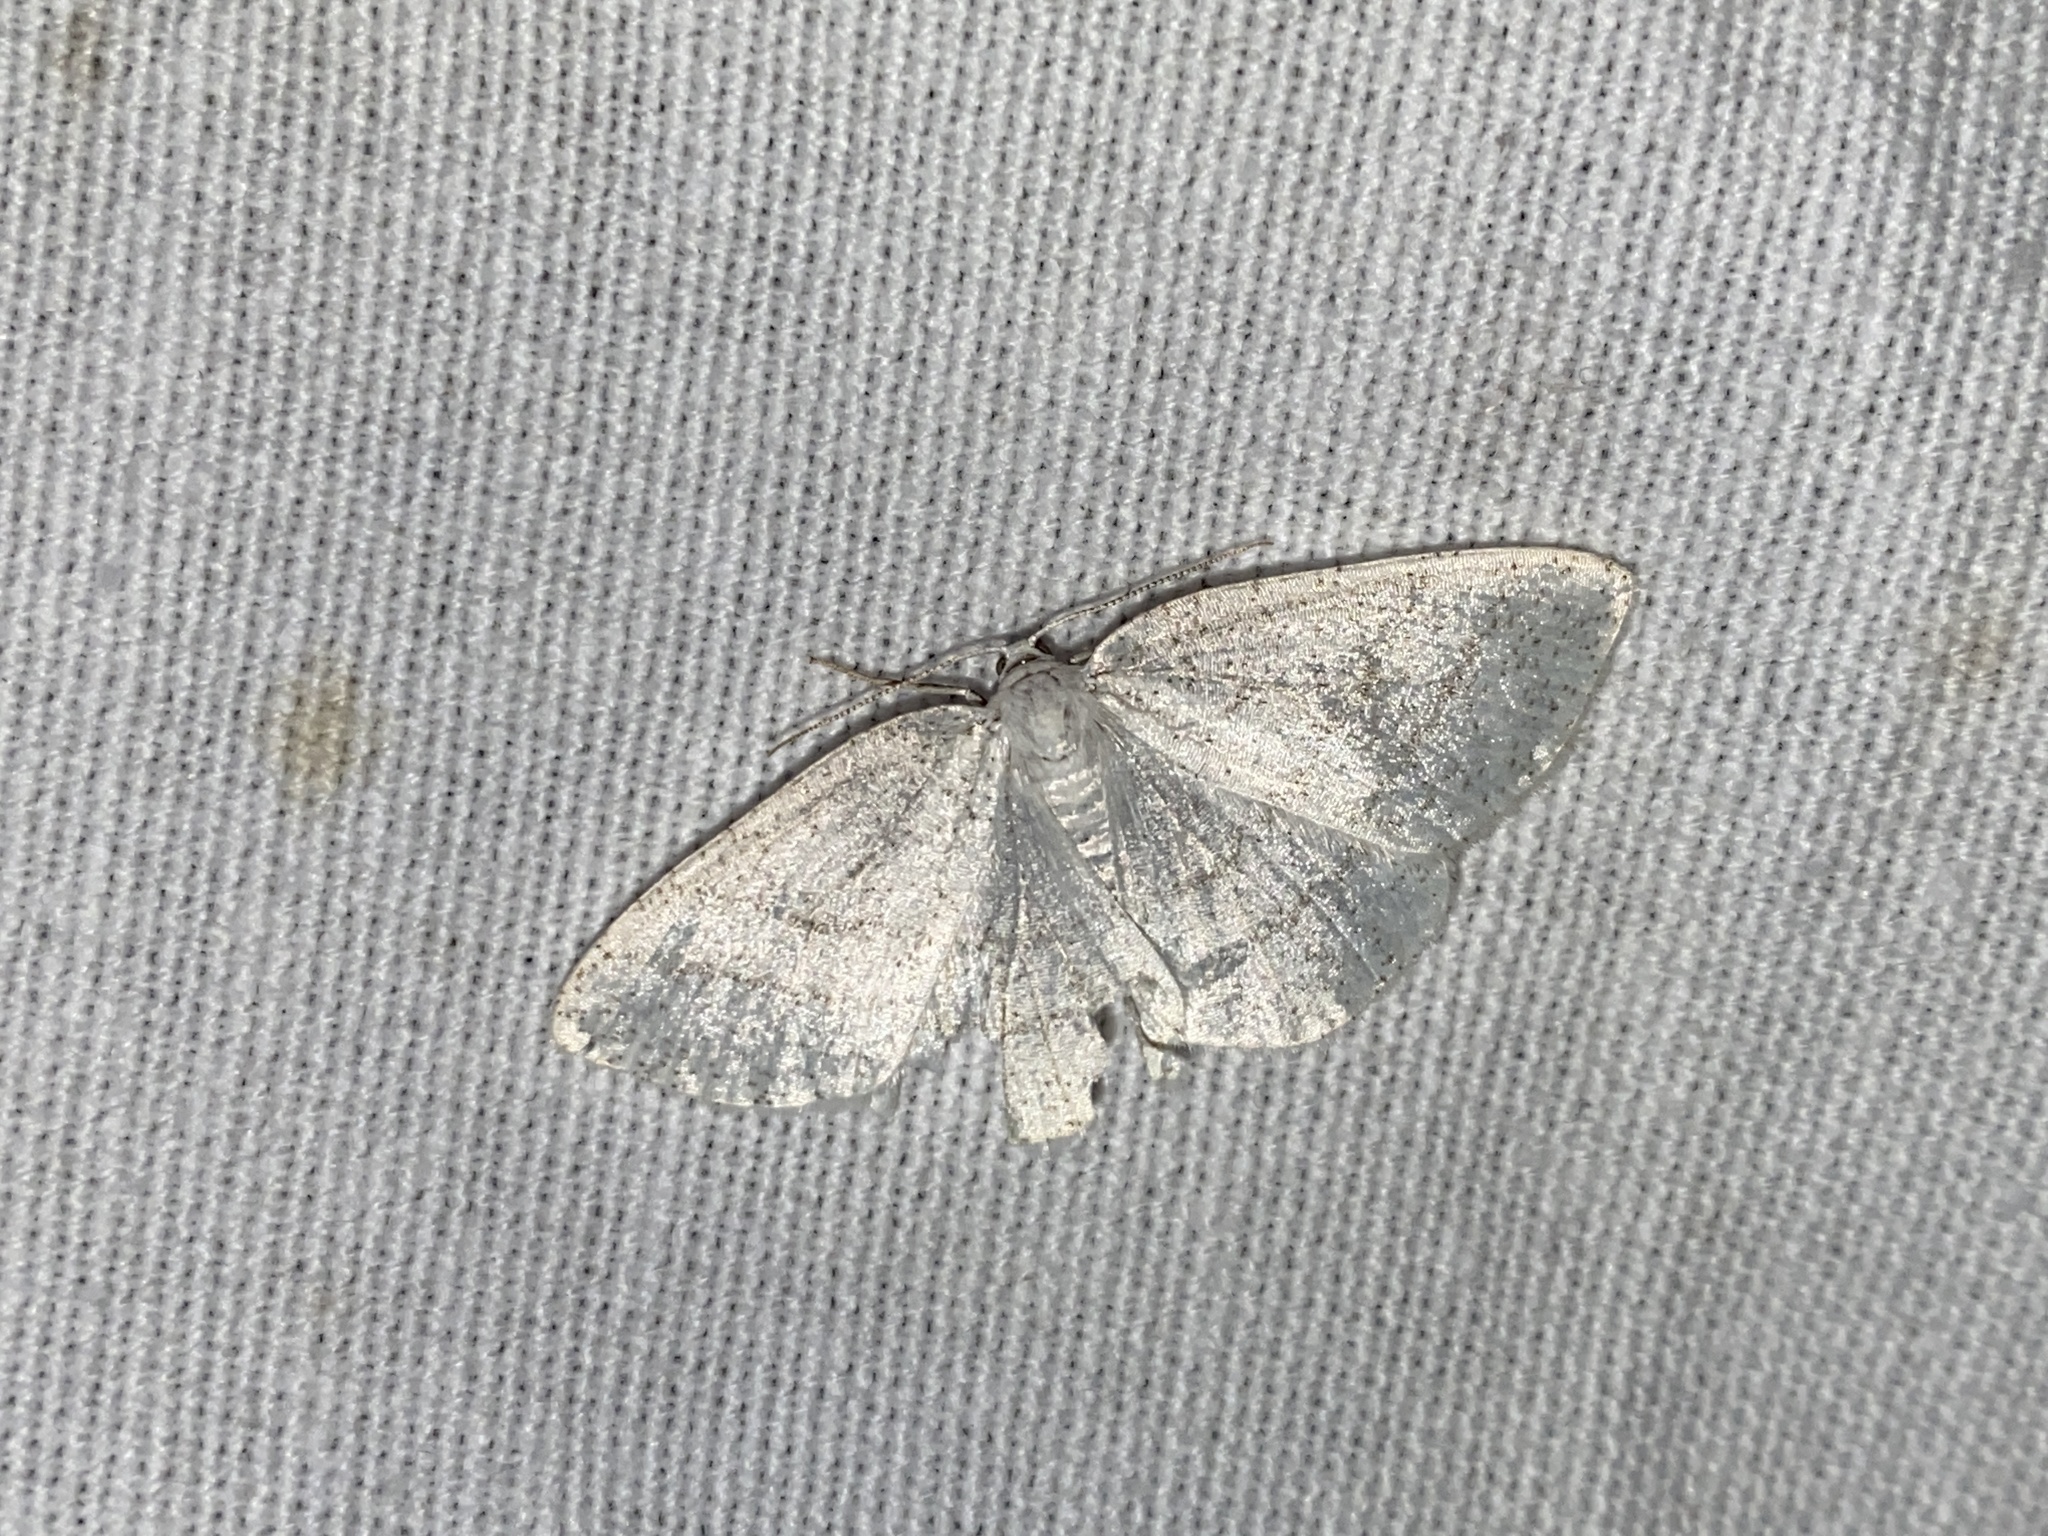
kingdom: Animalia
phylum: Arthropoda
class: Insecta
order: Lepidoptera
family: Geometridae
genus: Cabera
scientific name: Cabera pusaria
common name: Common white wave
